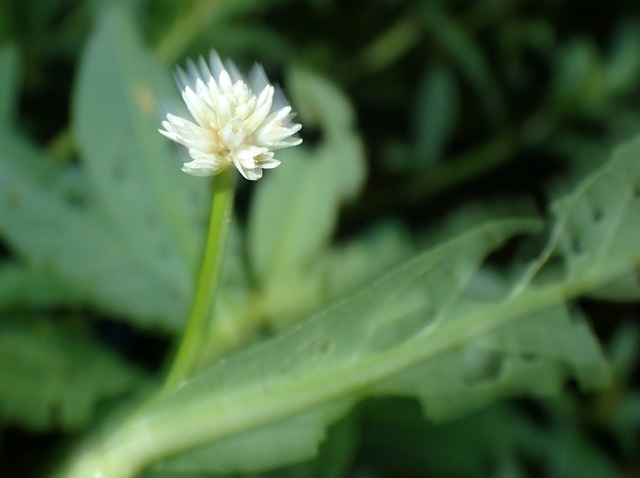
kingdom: Plantae
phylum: Tracheophyta
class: Magnoliopsida
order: Caryophyllales
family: Amaranthaceae
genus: Alternanthera
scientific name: Alternanthera philoxeroides
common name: Alligatorweed
